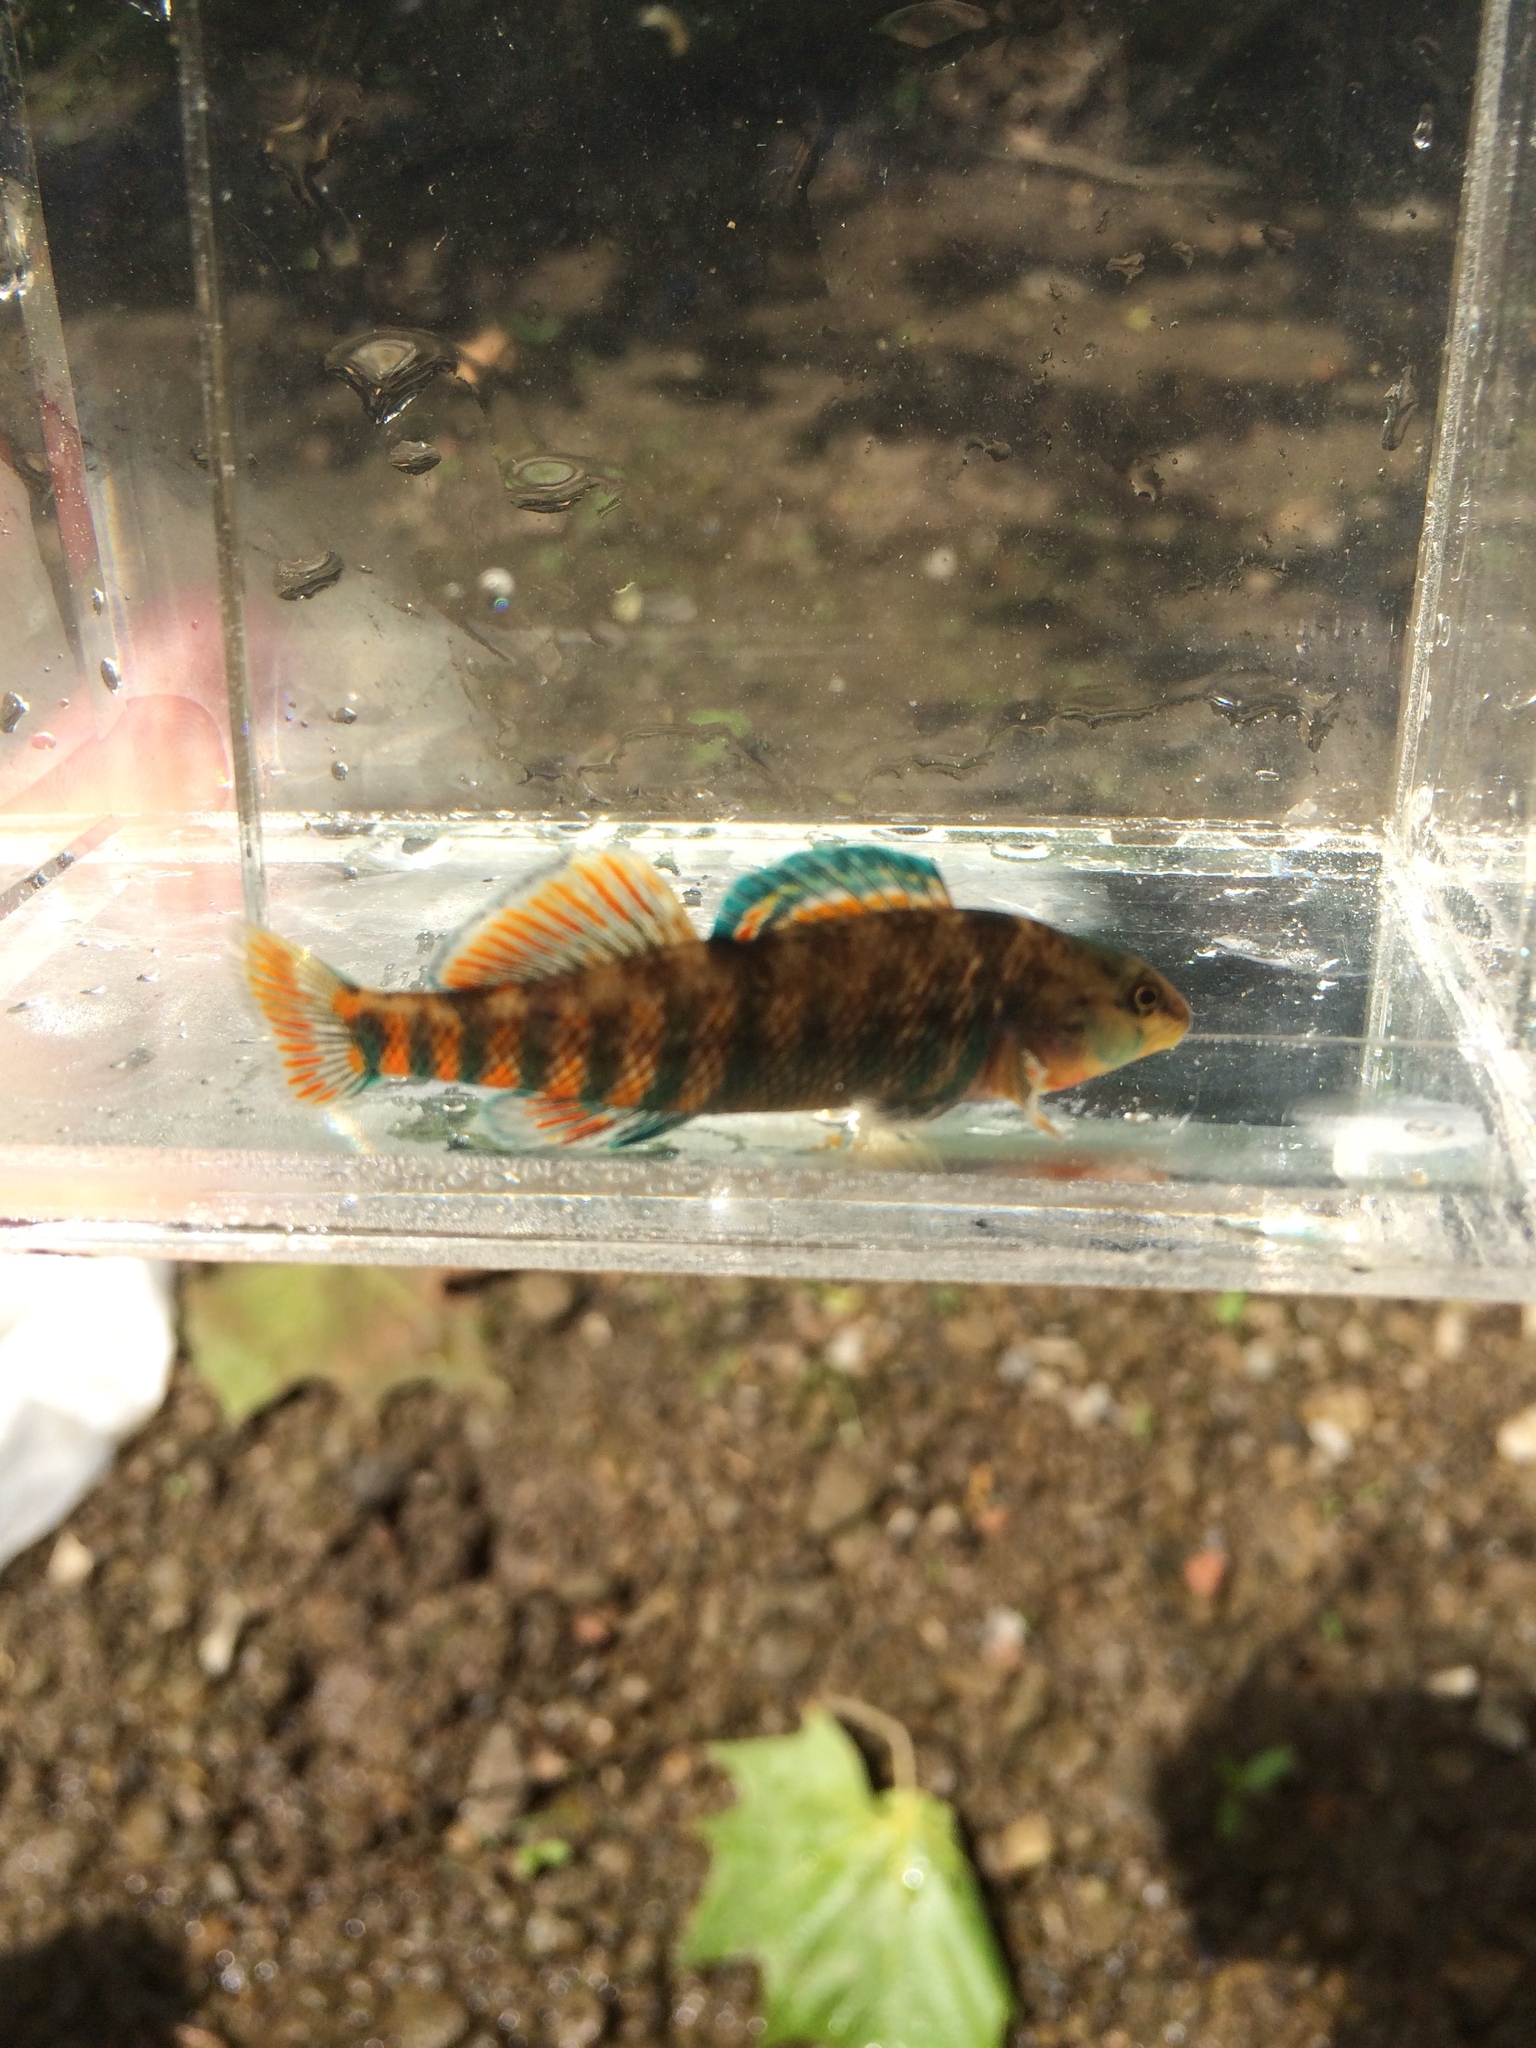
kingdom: Animalia
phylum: Chordata
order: Perciformes
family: Percidae
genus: Etheostoma
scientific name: Etheostoma caeruleum
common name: Rainbow darter
